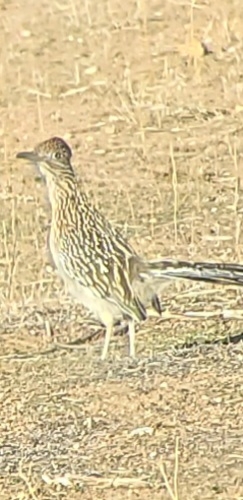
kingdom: Animalia
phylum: Chordata
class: Aves
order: Cuculiformes
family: Cuculidae
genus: Geococcyx
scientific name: Geococcyx californianus
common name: Greater roadrunner
